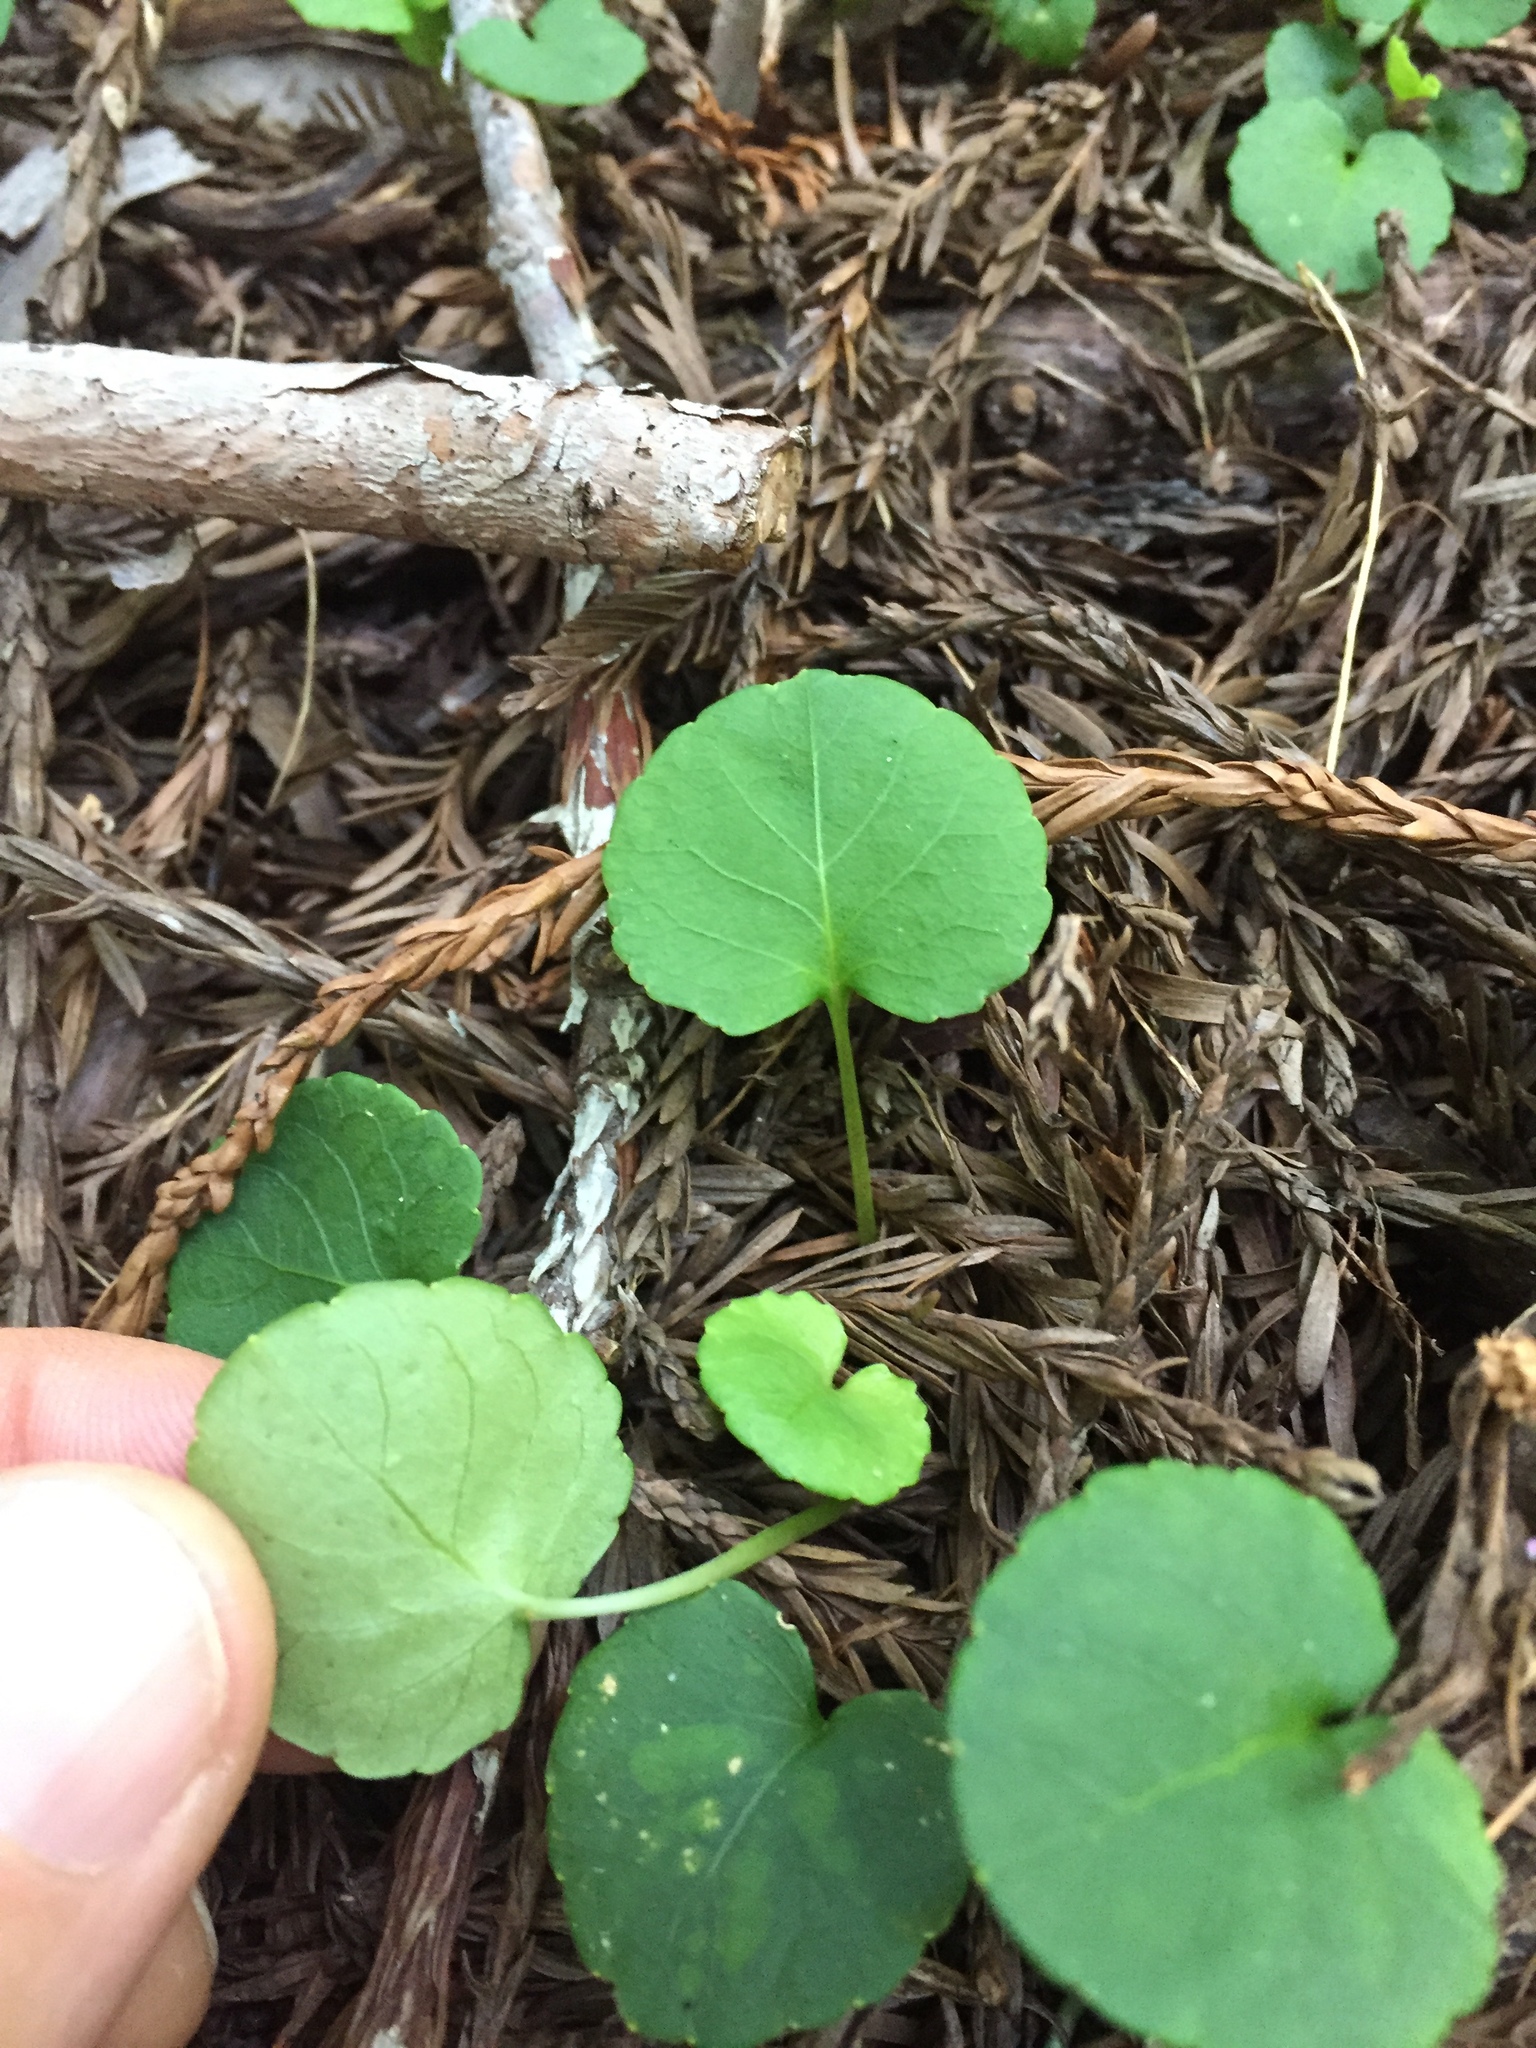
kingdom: Plantae
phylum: Tracheophyta
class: Magnoliopsida
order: Malpighiales
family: Violaceae
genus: Viola
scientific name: Viola sempervirens
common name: Evergreen violet
